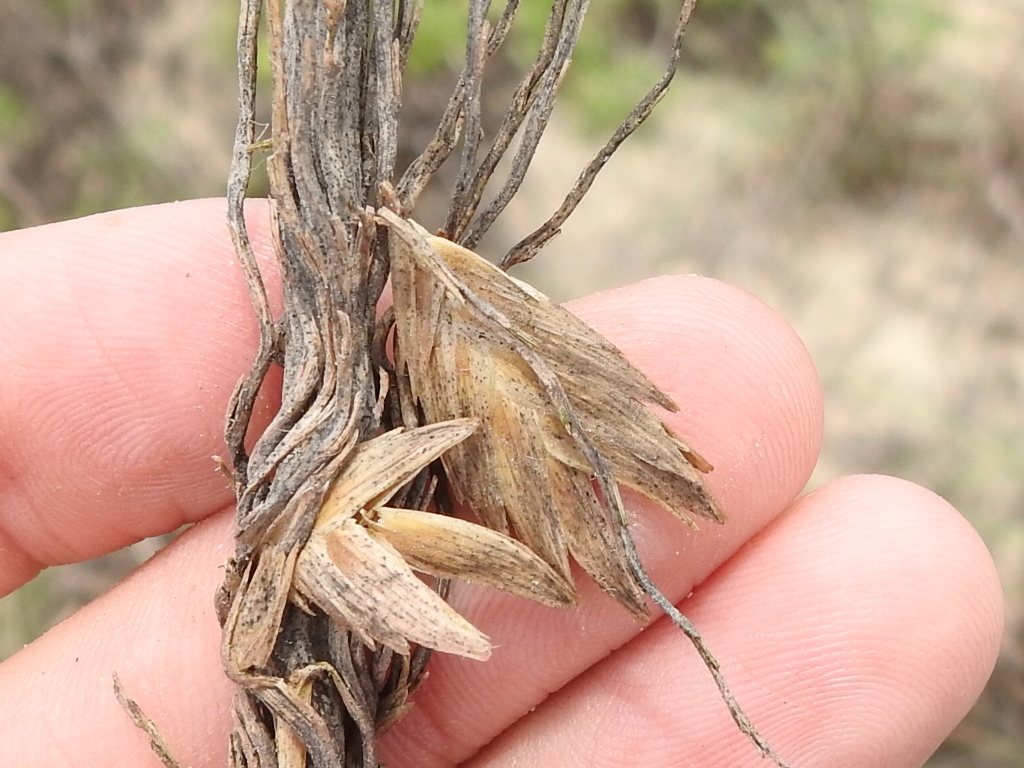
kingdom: Plantae
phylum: Tracheophyta
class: Liliopsida
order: Poales
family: Poaceae
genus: Uniola
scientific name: Uniola paniculata
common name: Seaside-oats
